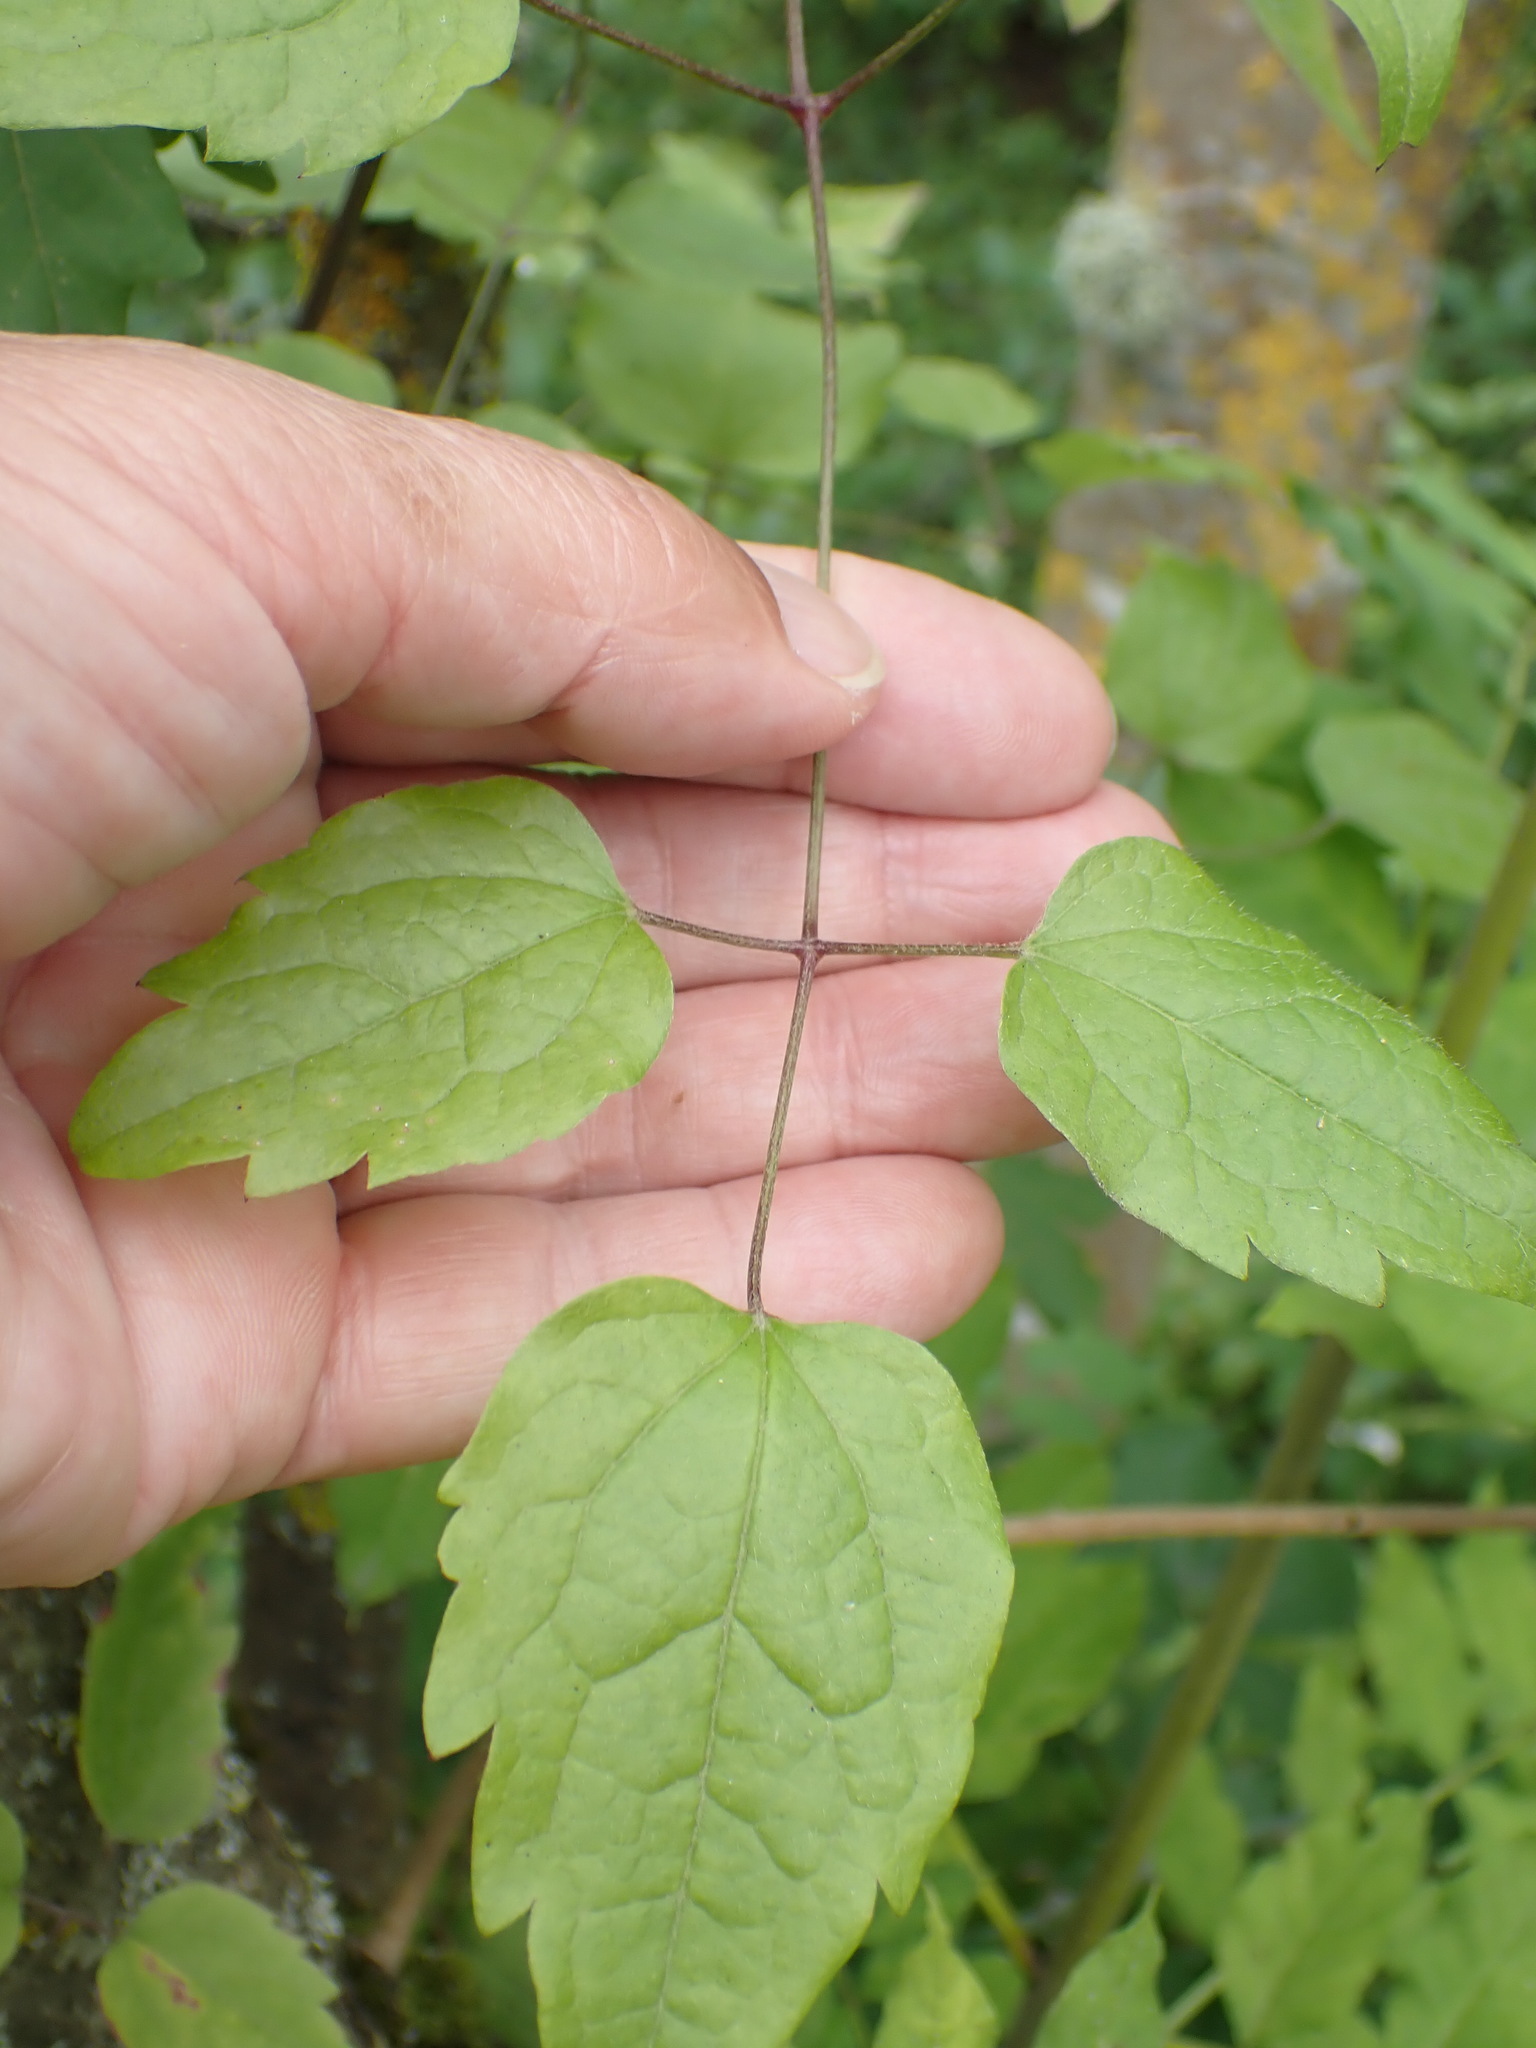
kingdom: Plantae
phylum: Tracheophyta
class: Magnoliopsida
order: Ranunculales
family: Ranunculaceae
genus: Clematis
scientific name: Clematis vitalba
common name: Evergreen clematis
